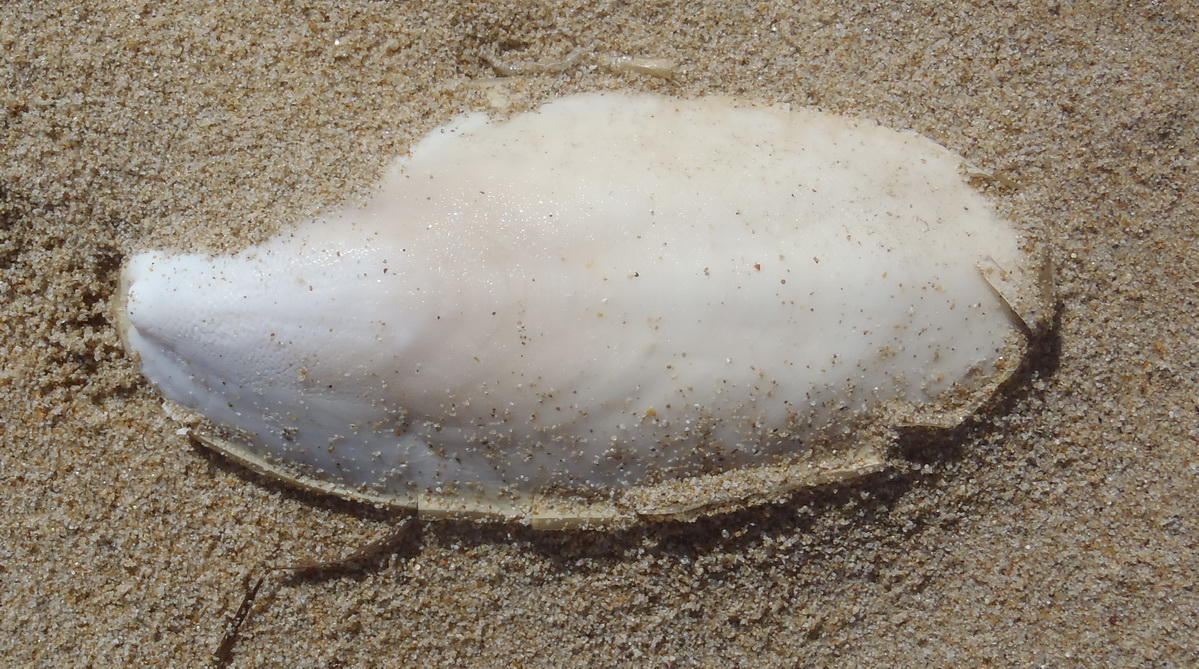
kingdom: Animalia
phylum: Mollusca
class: Cephalopoda
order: Sepiida
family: Sepiidae
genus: Sepia
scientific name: Sepia vermiculata
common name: Patchwork cuttlefish
